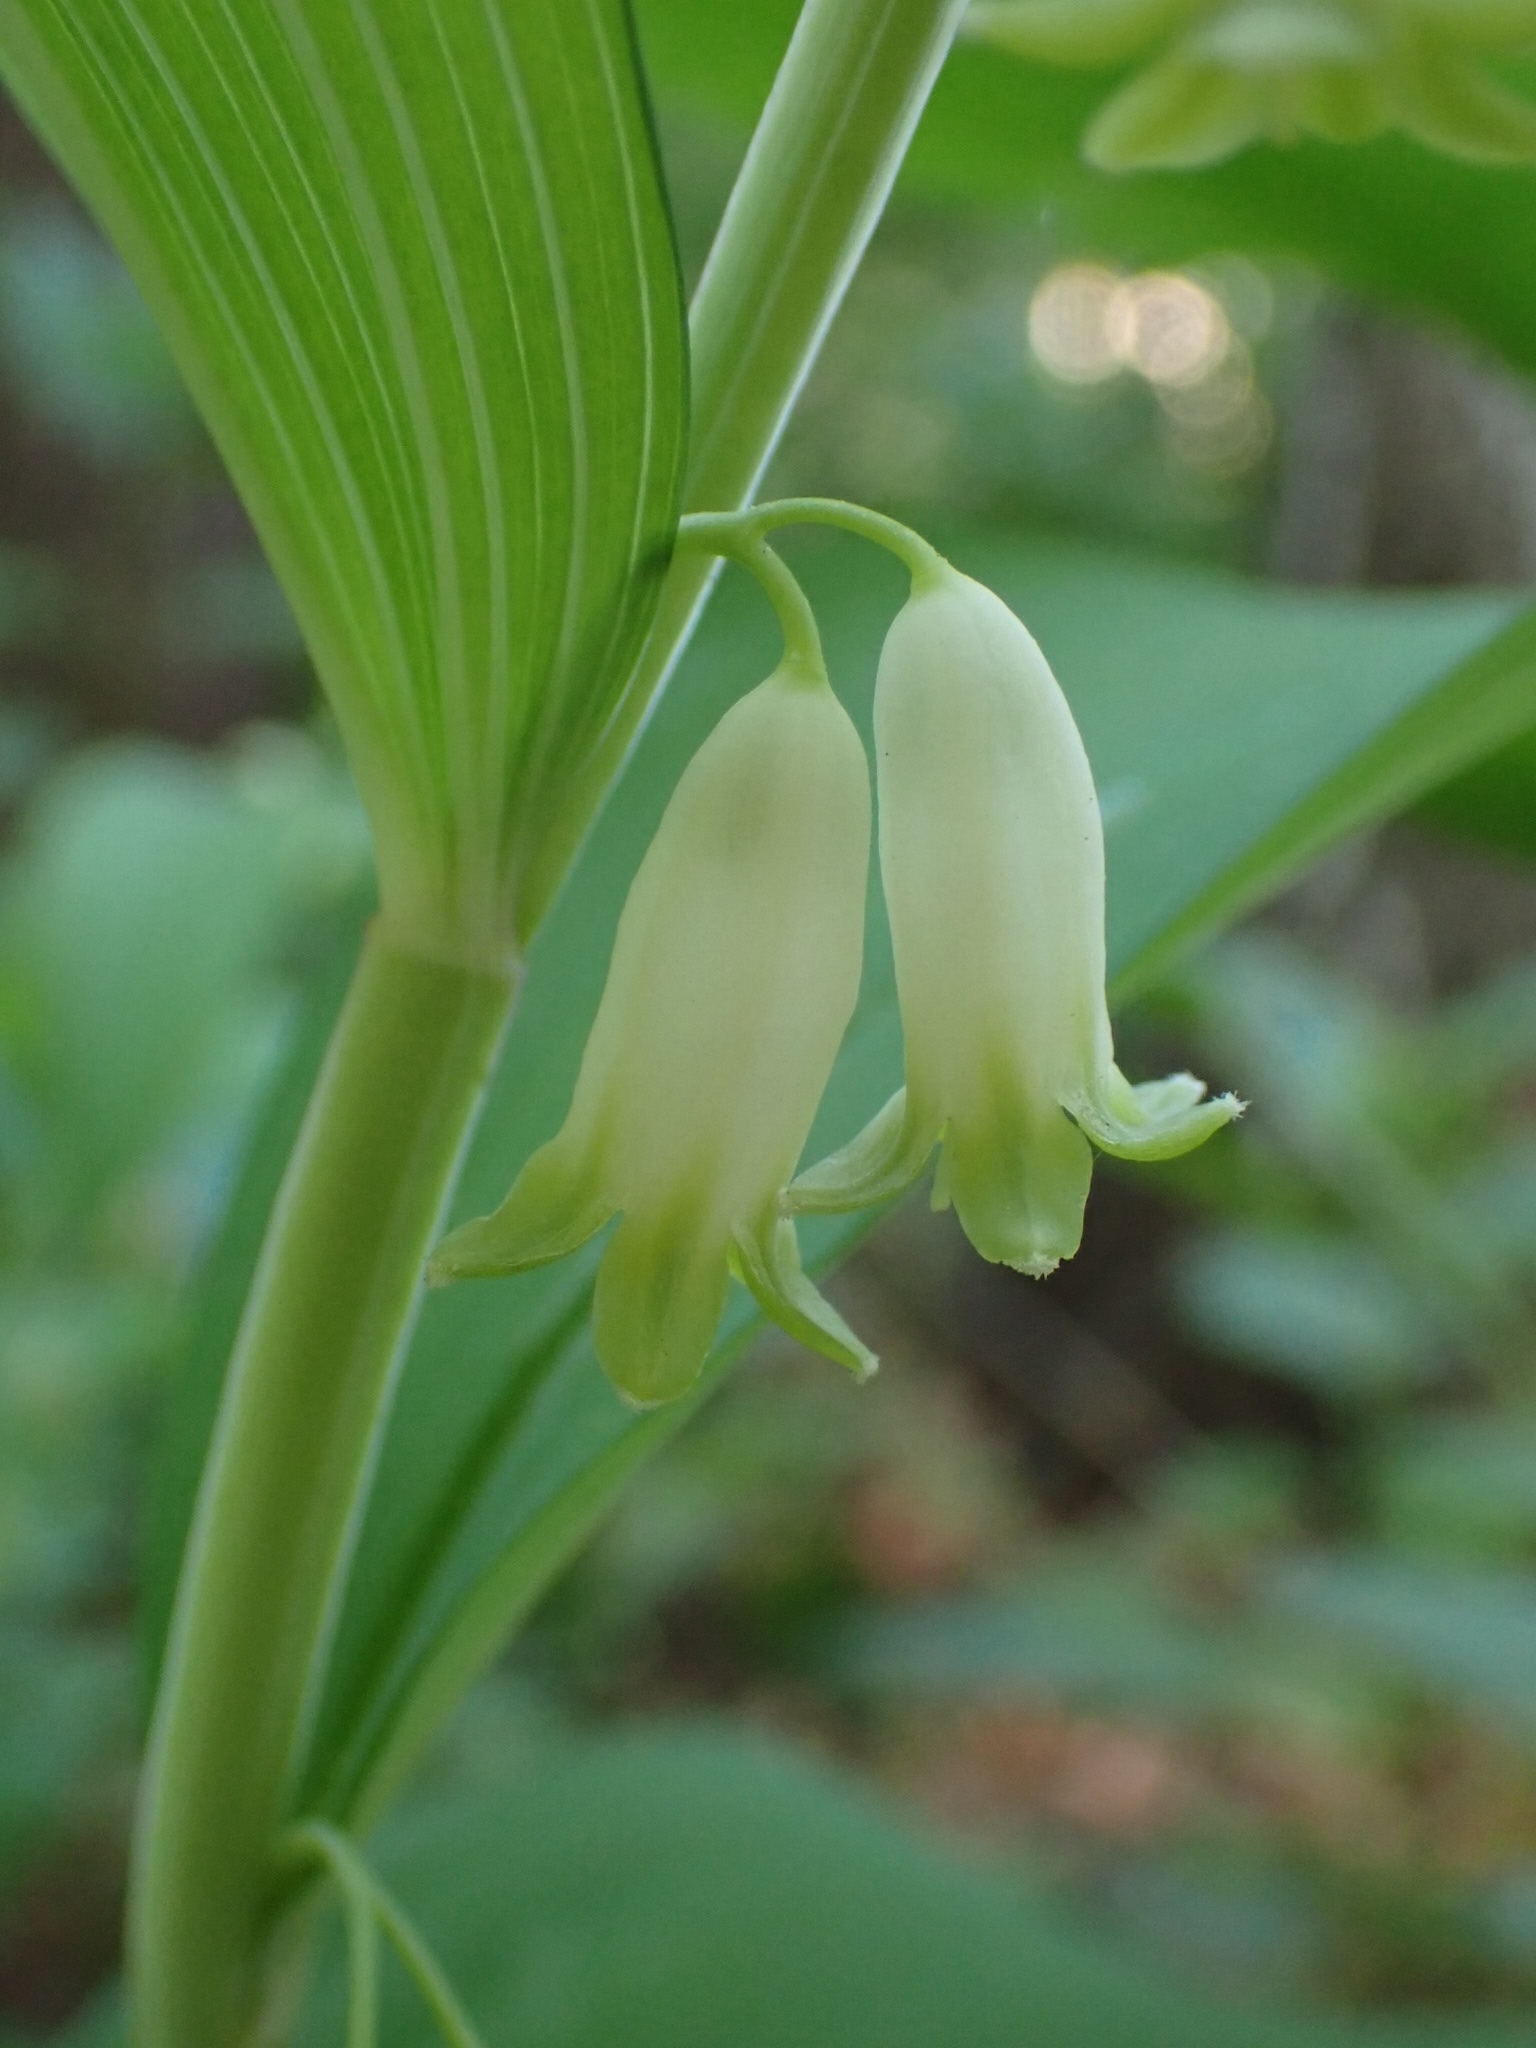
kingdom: Plantae
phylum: Tracheophyta
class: Liliopsida
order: Asparagales
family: Asparagaceae
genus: Polygonatum
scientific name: Polygonatum odoratum
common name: Angular solomon's-seal
